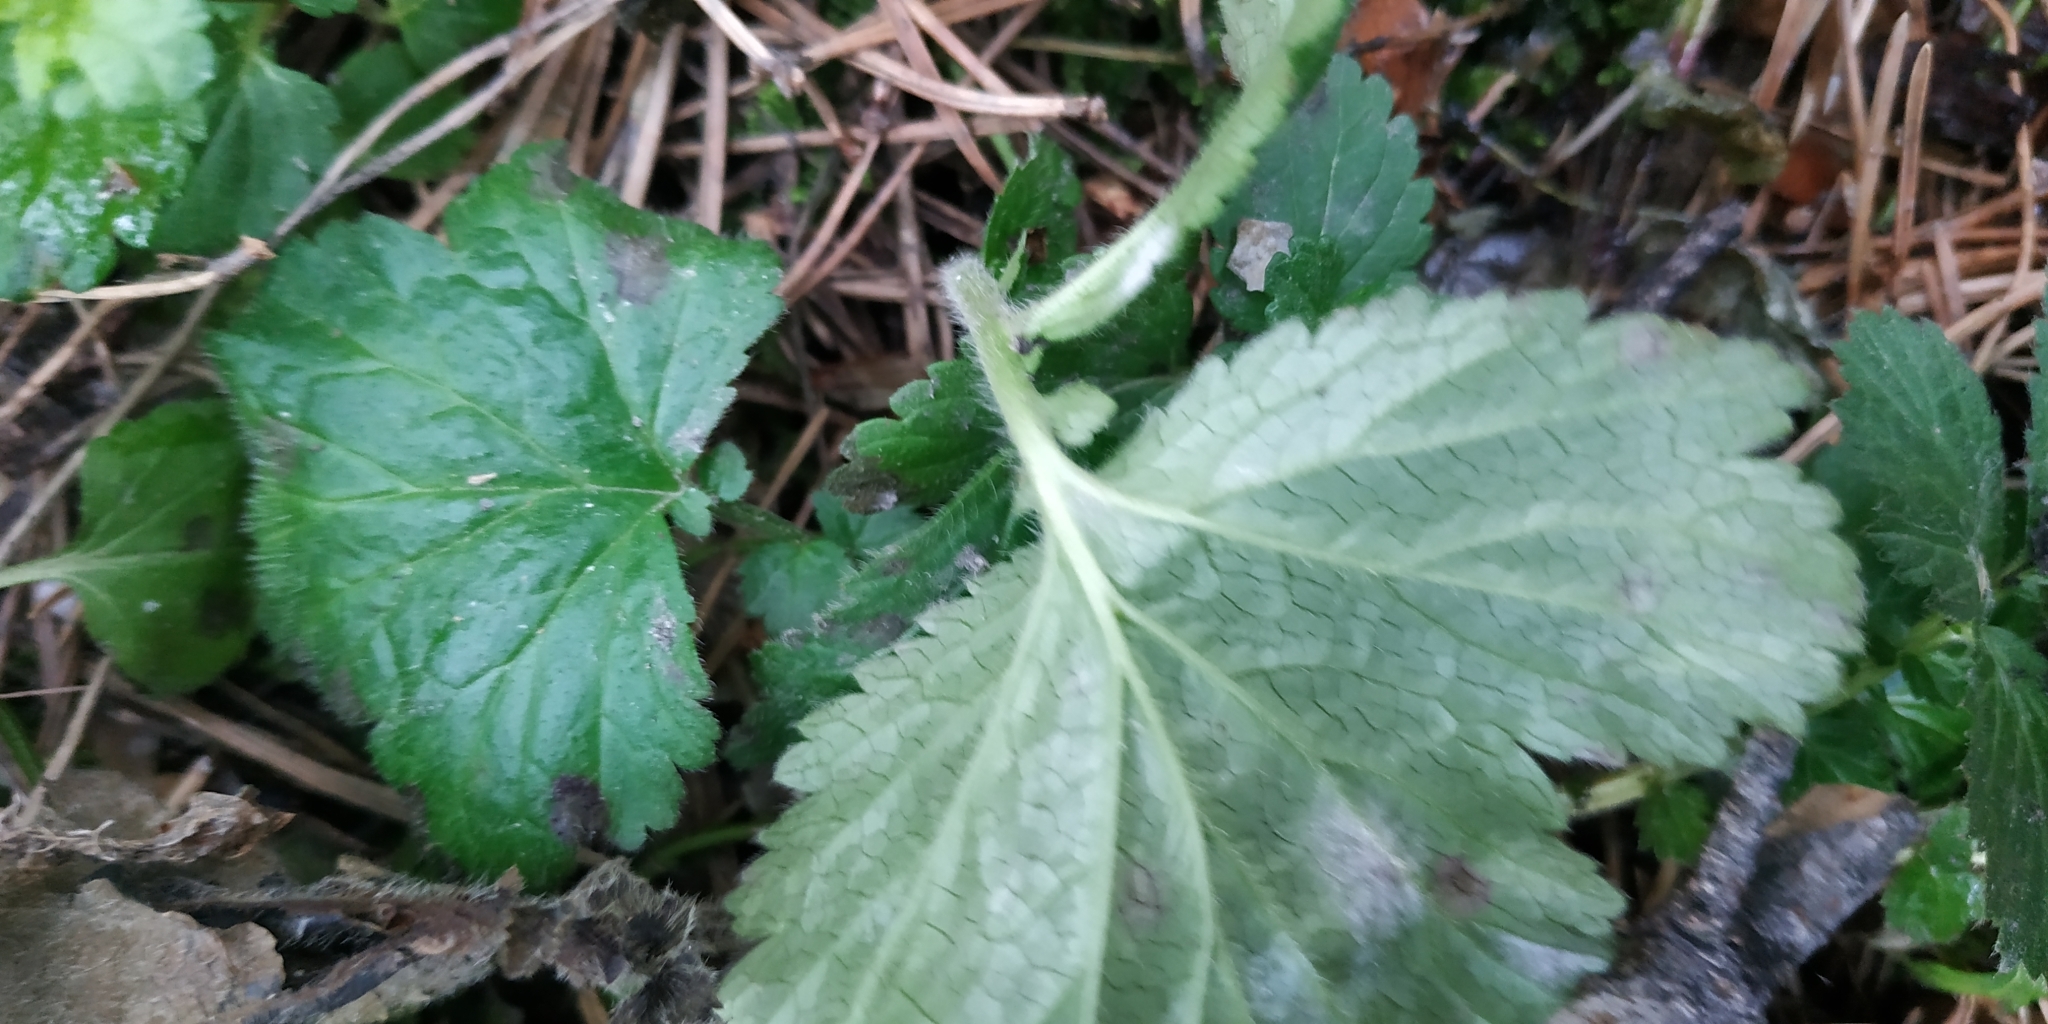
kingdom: Plantae
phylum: Tracheophyta
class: Magnoliopsida
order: Rosales
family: Rosaceae
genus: Geum
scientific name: Geum aleppicum
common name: Yellow avens
